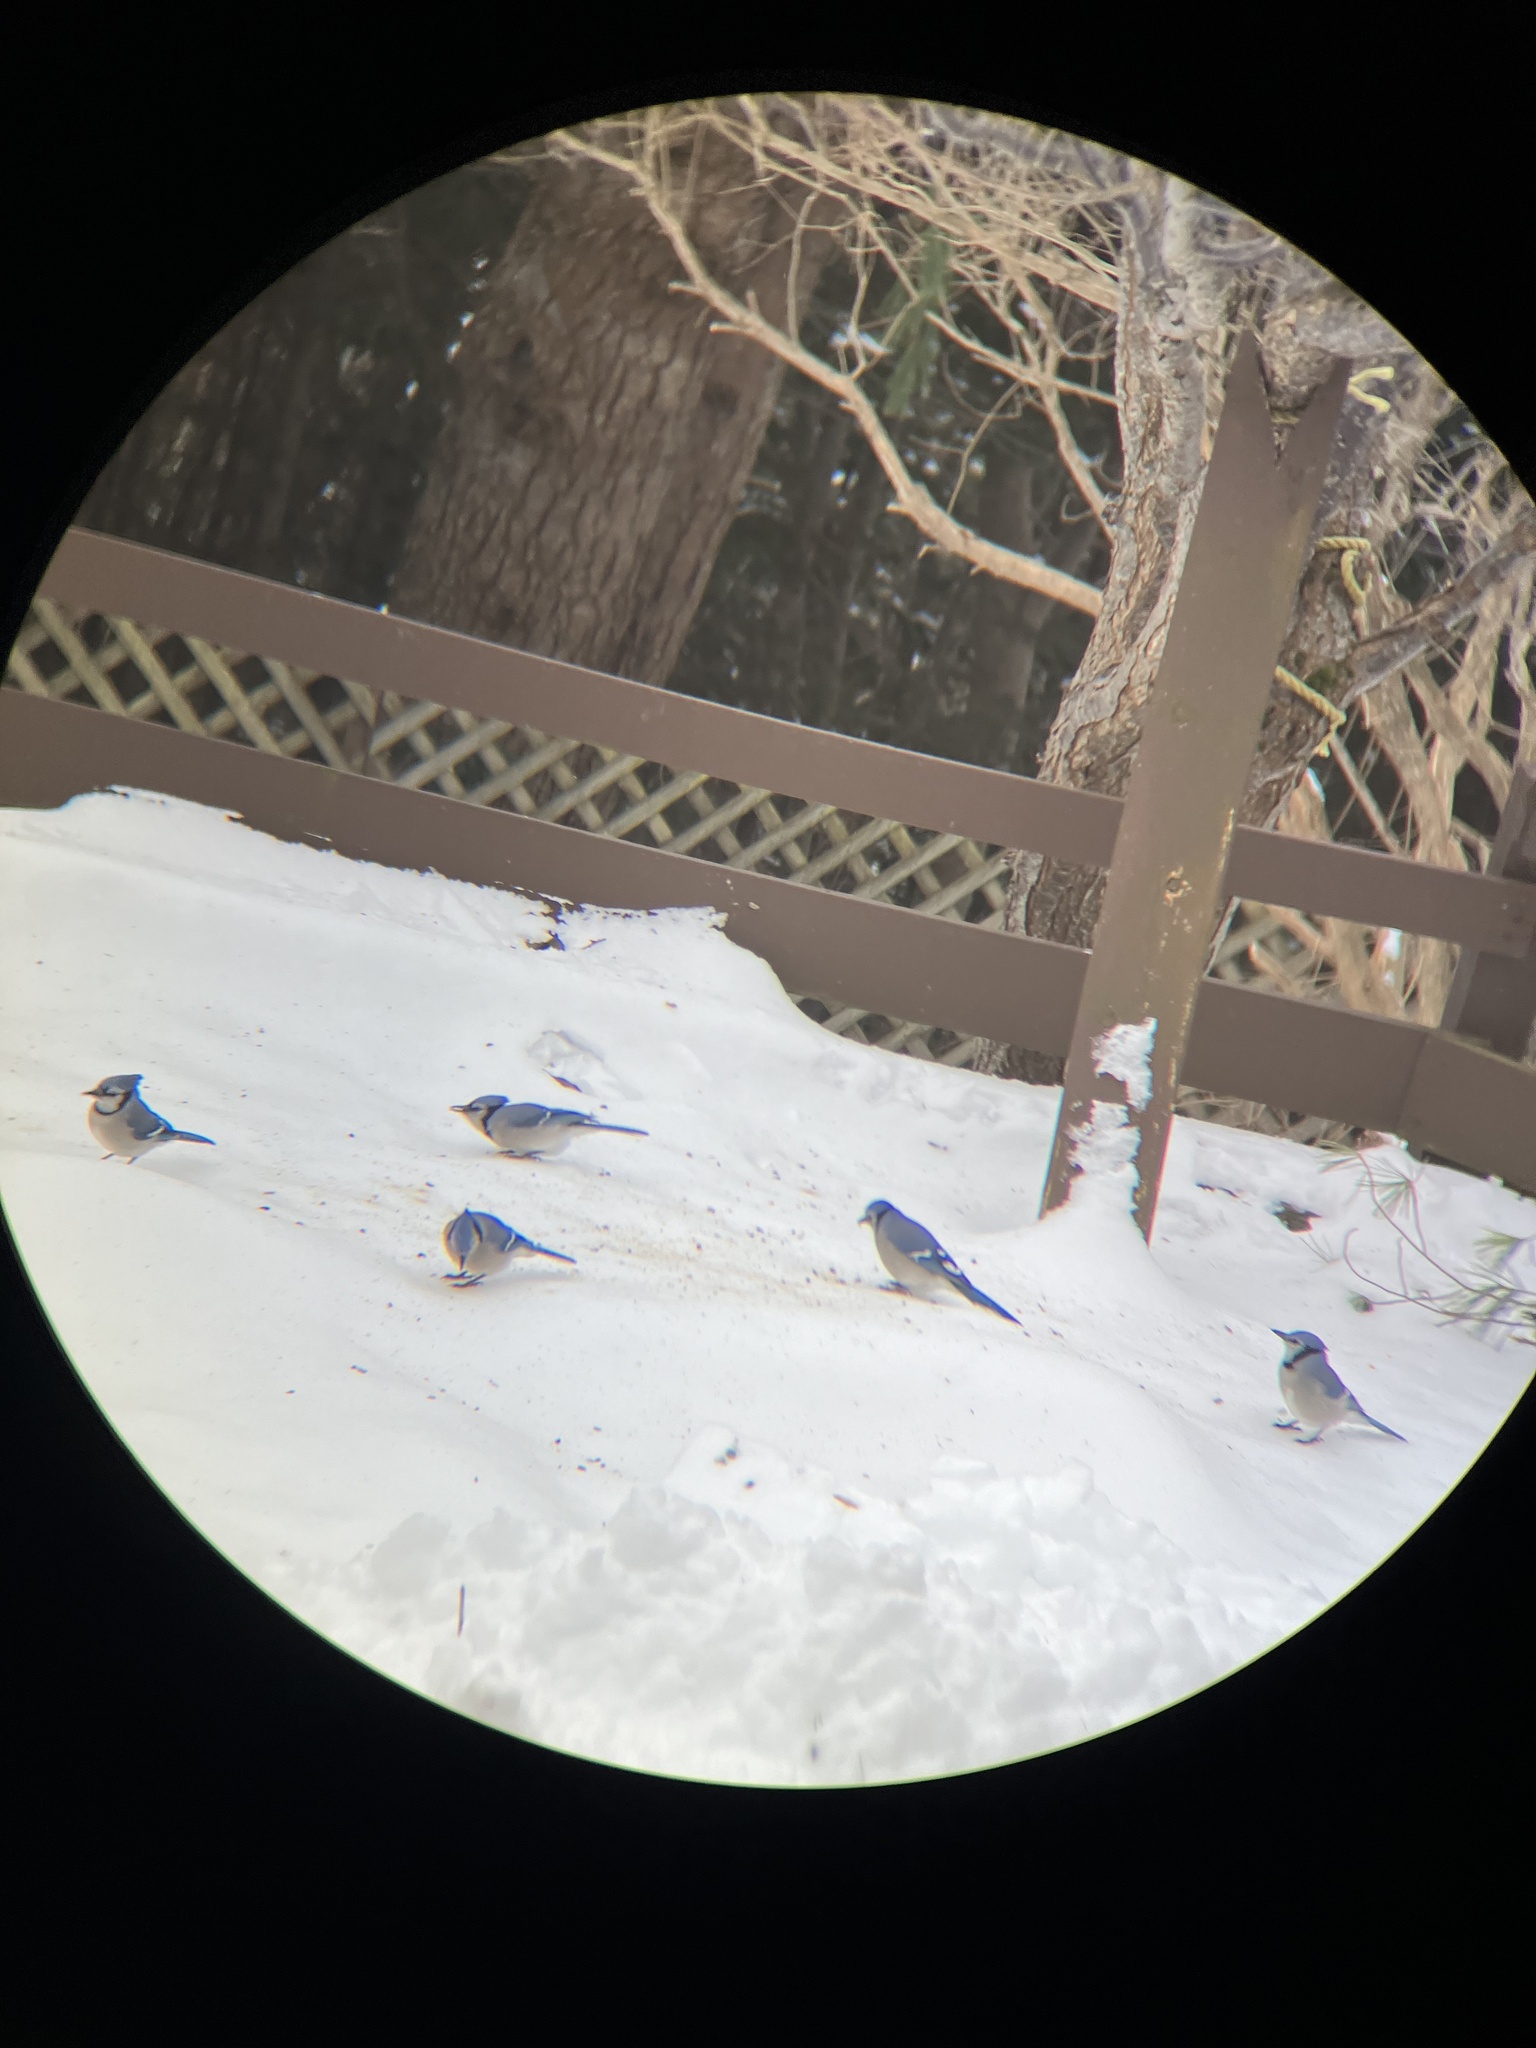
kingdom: Animalia
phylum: Chordata
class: Aves
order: Passeriformes
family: Corvidae
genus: Cyanocitta
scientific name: Cyanocitta cristata
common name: Blue jay
